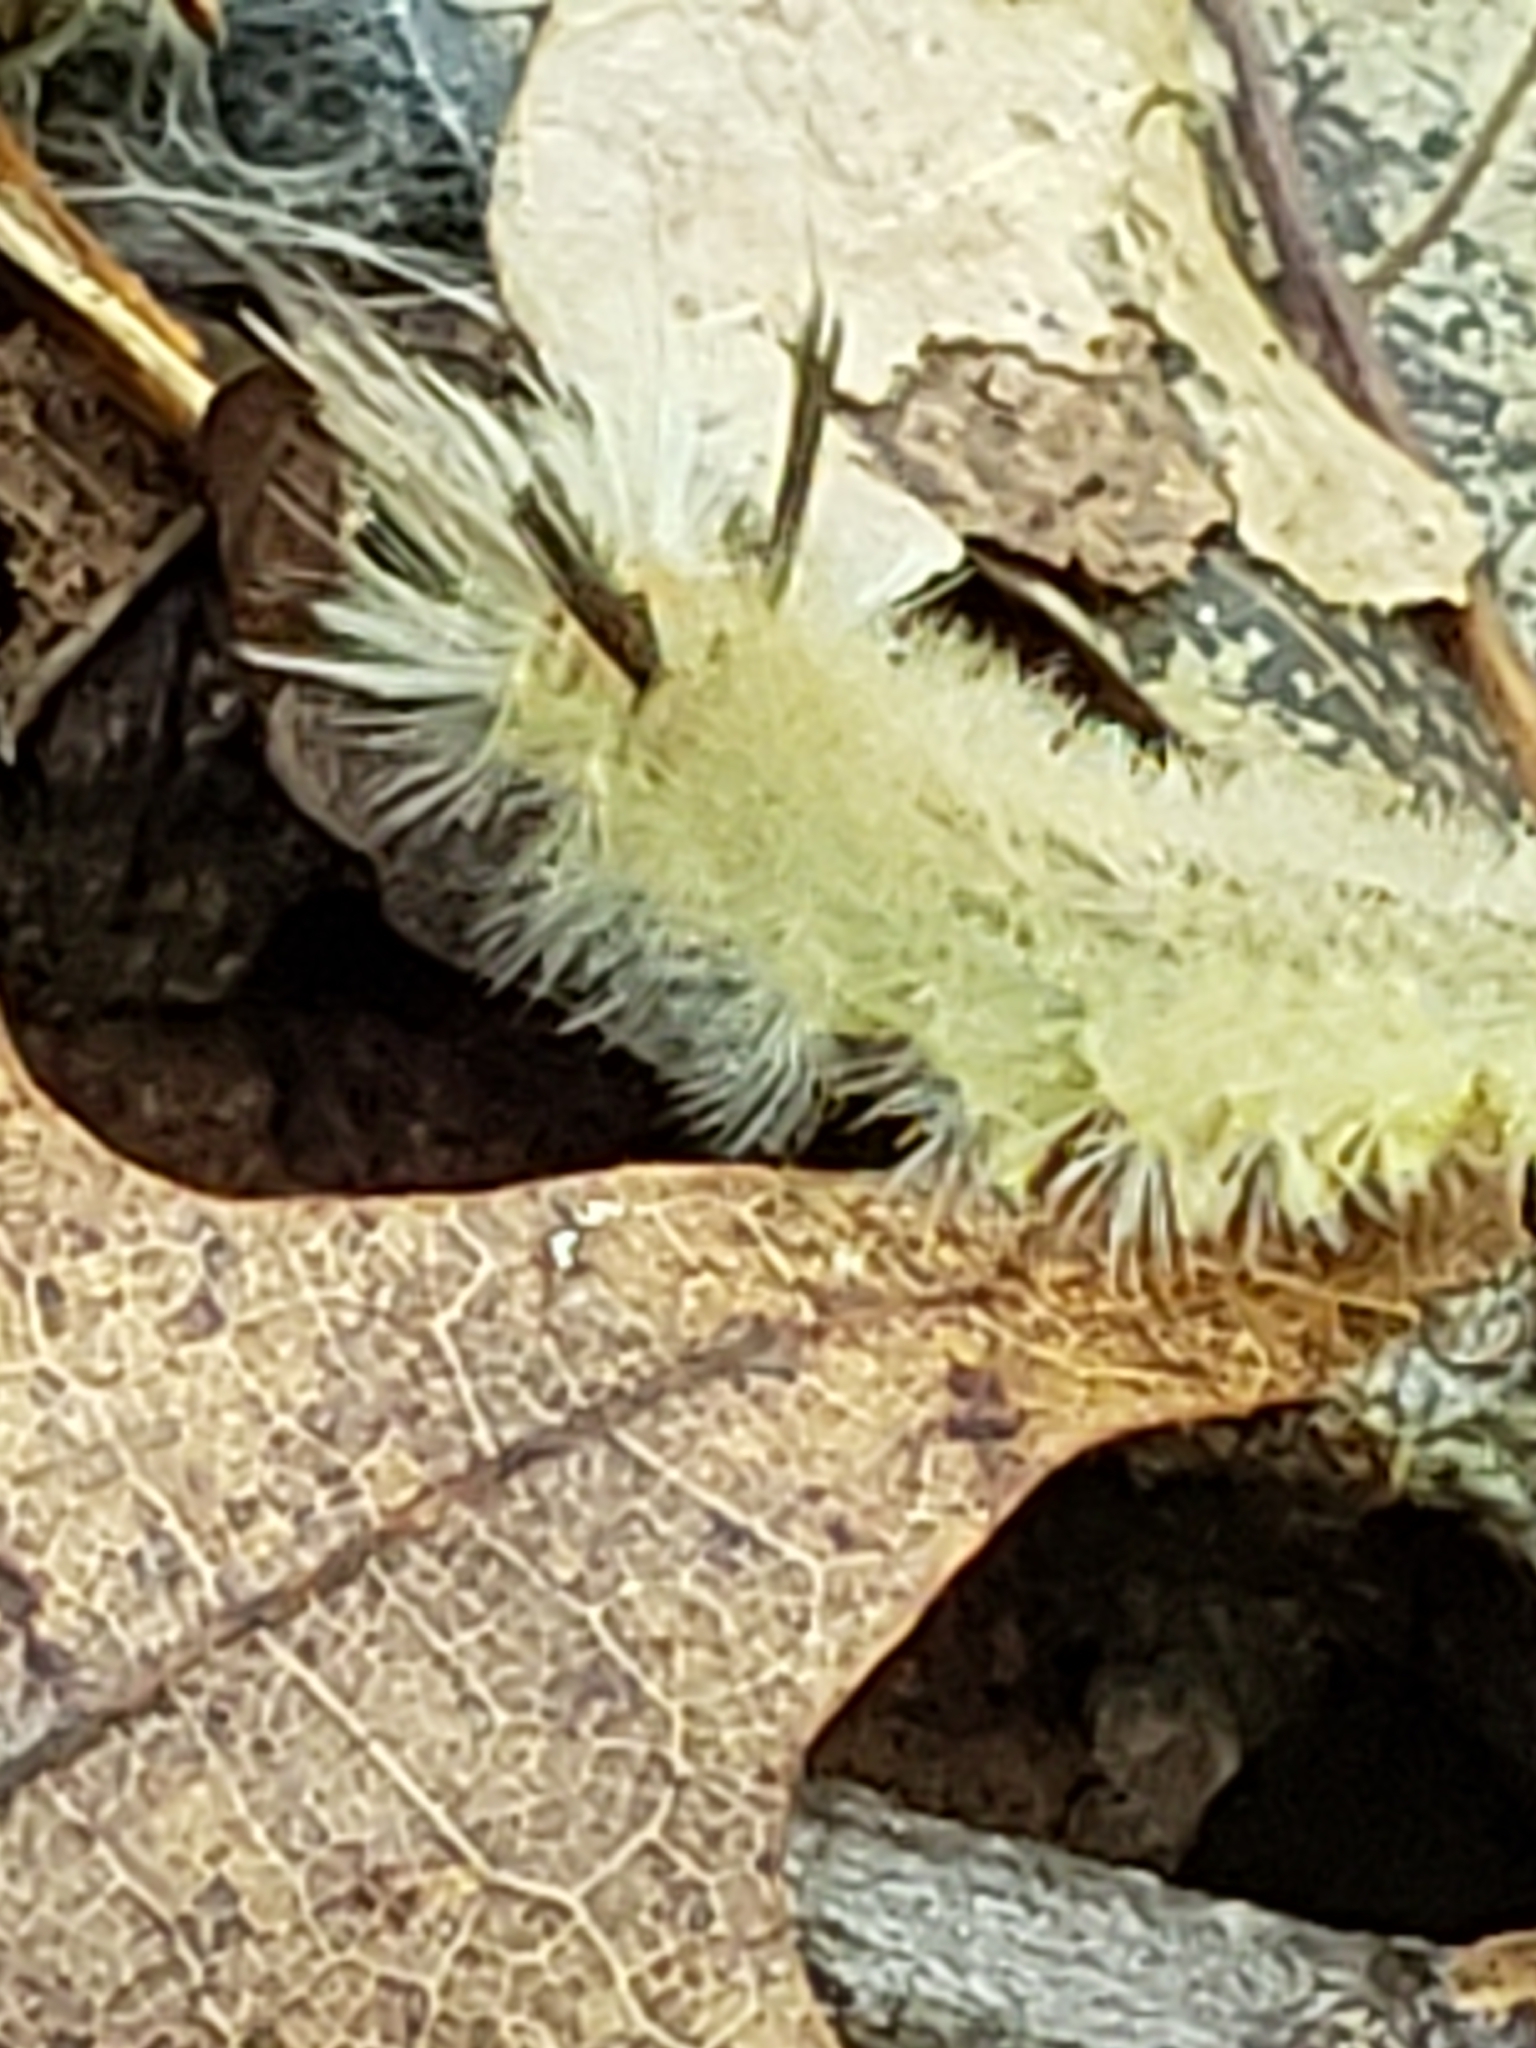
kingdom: Animalia
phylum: Arthropoda
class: Insecta
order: Lepidoptera
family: Erebidae
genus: Halysidota
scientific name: Halysidota tessellaris
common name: Banded tussock moth
